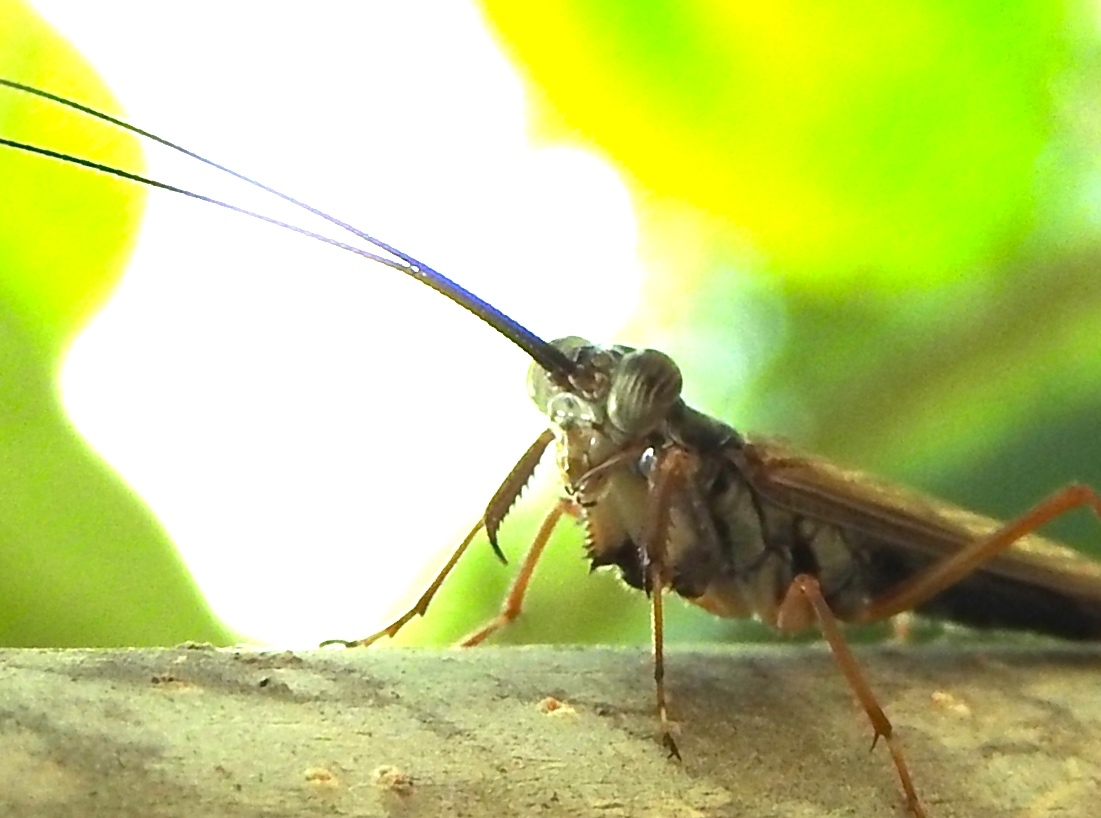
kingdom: Animalia
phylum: Arthropoda
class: Insecta
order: Mantodea
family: Mantoididae
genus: Mantoida
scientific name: Mantoida maya
